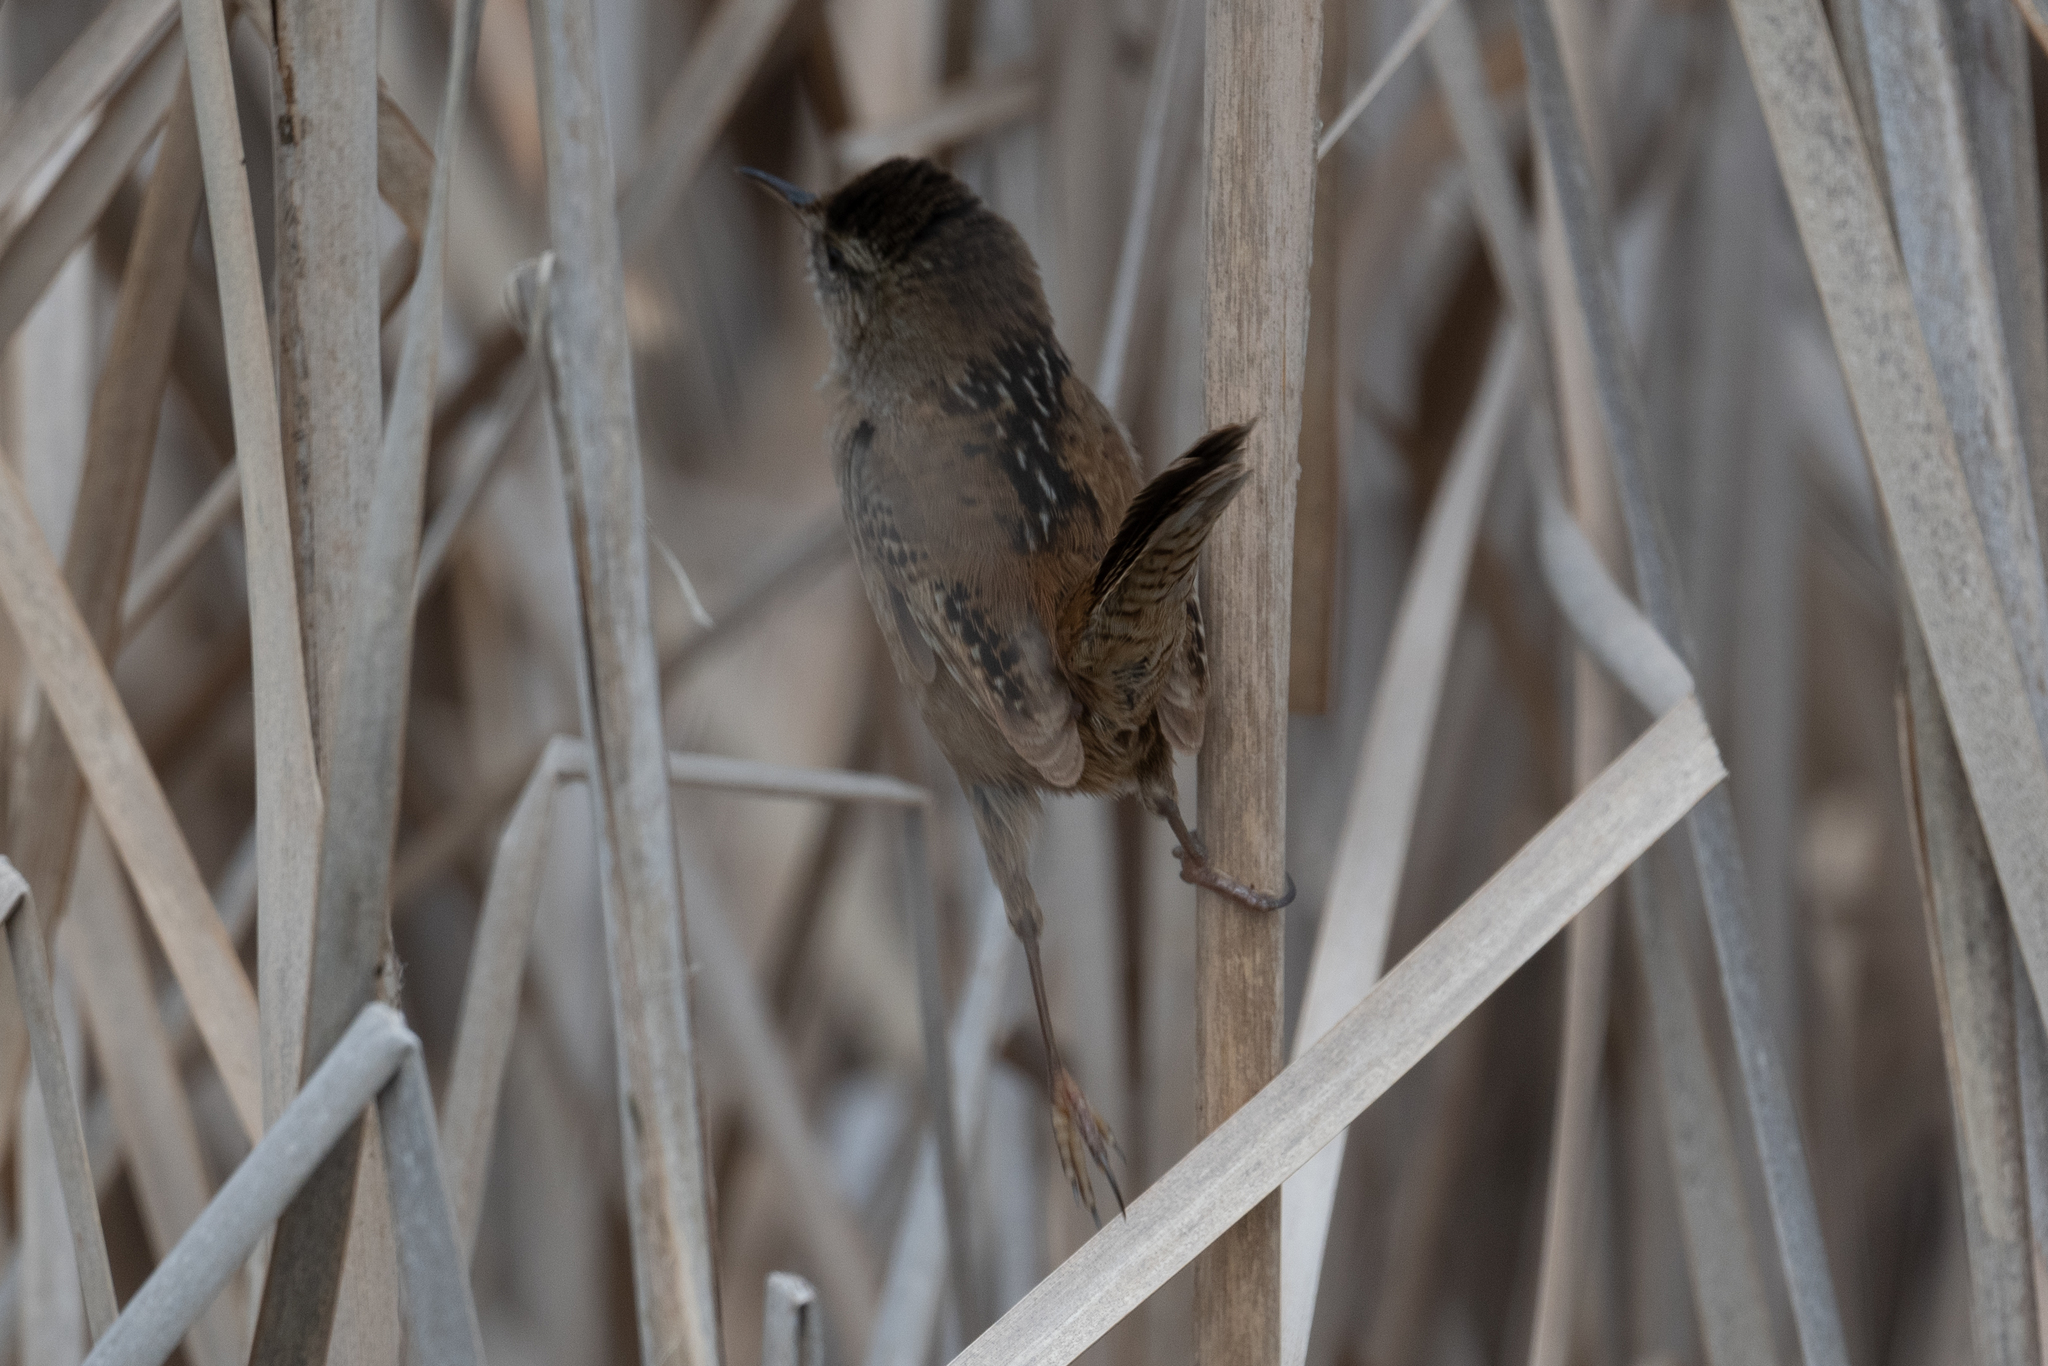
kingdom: Animalia
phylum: Chordata
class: Aves
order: Passeriformes
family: Troglodytidae
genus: Cistothorus
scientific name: Cistothorus palustris
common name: Marsh wren
